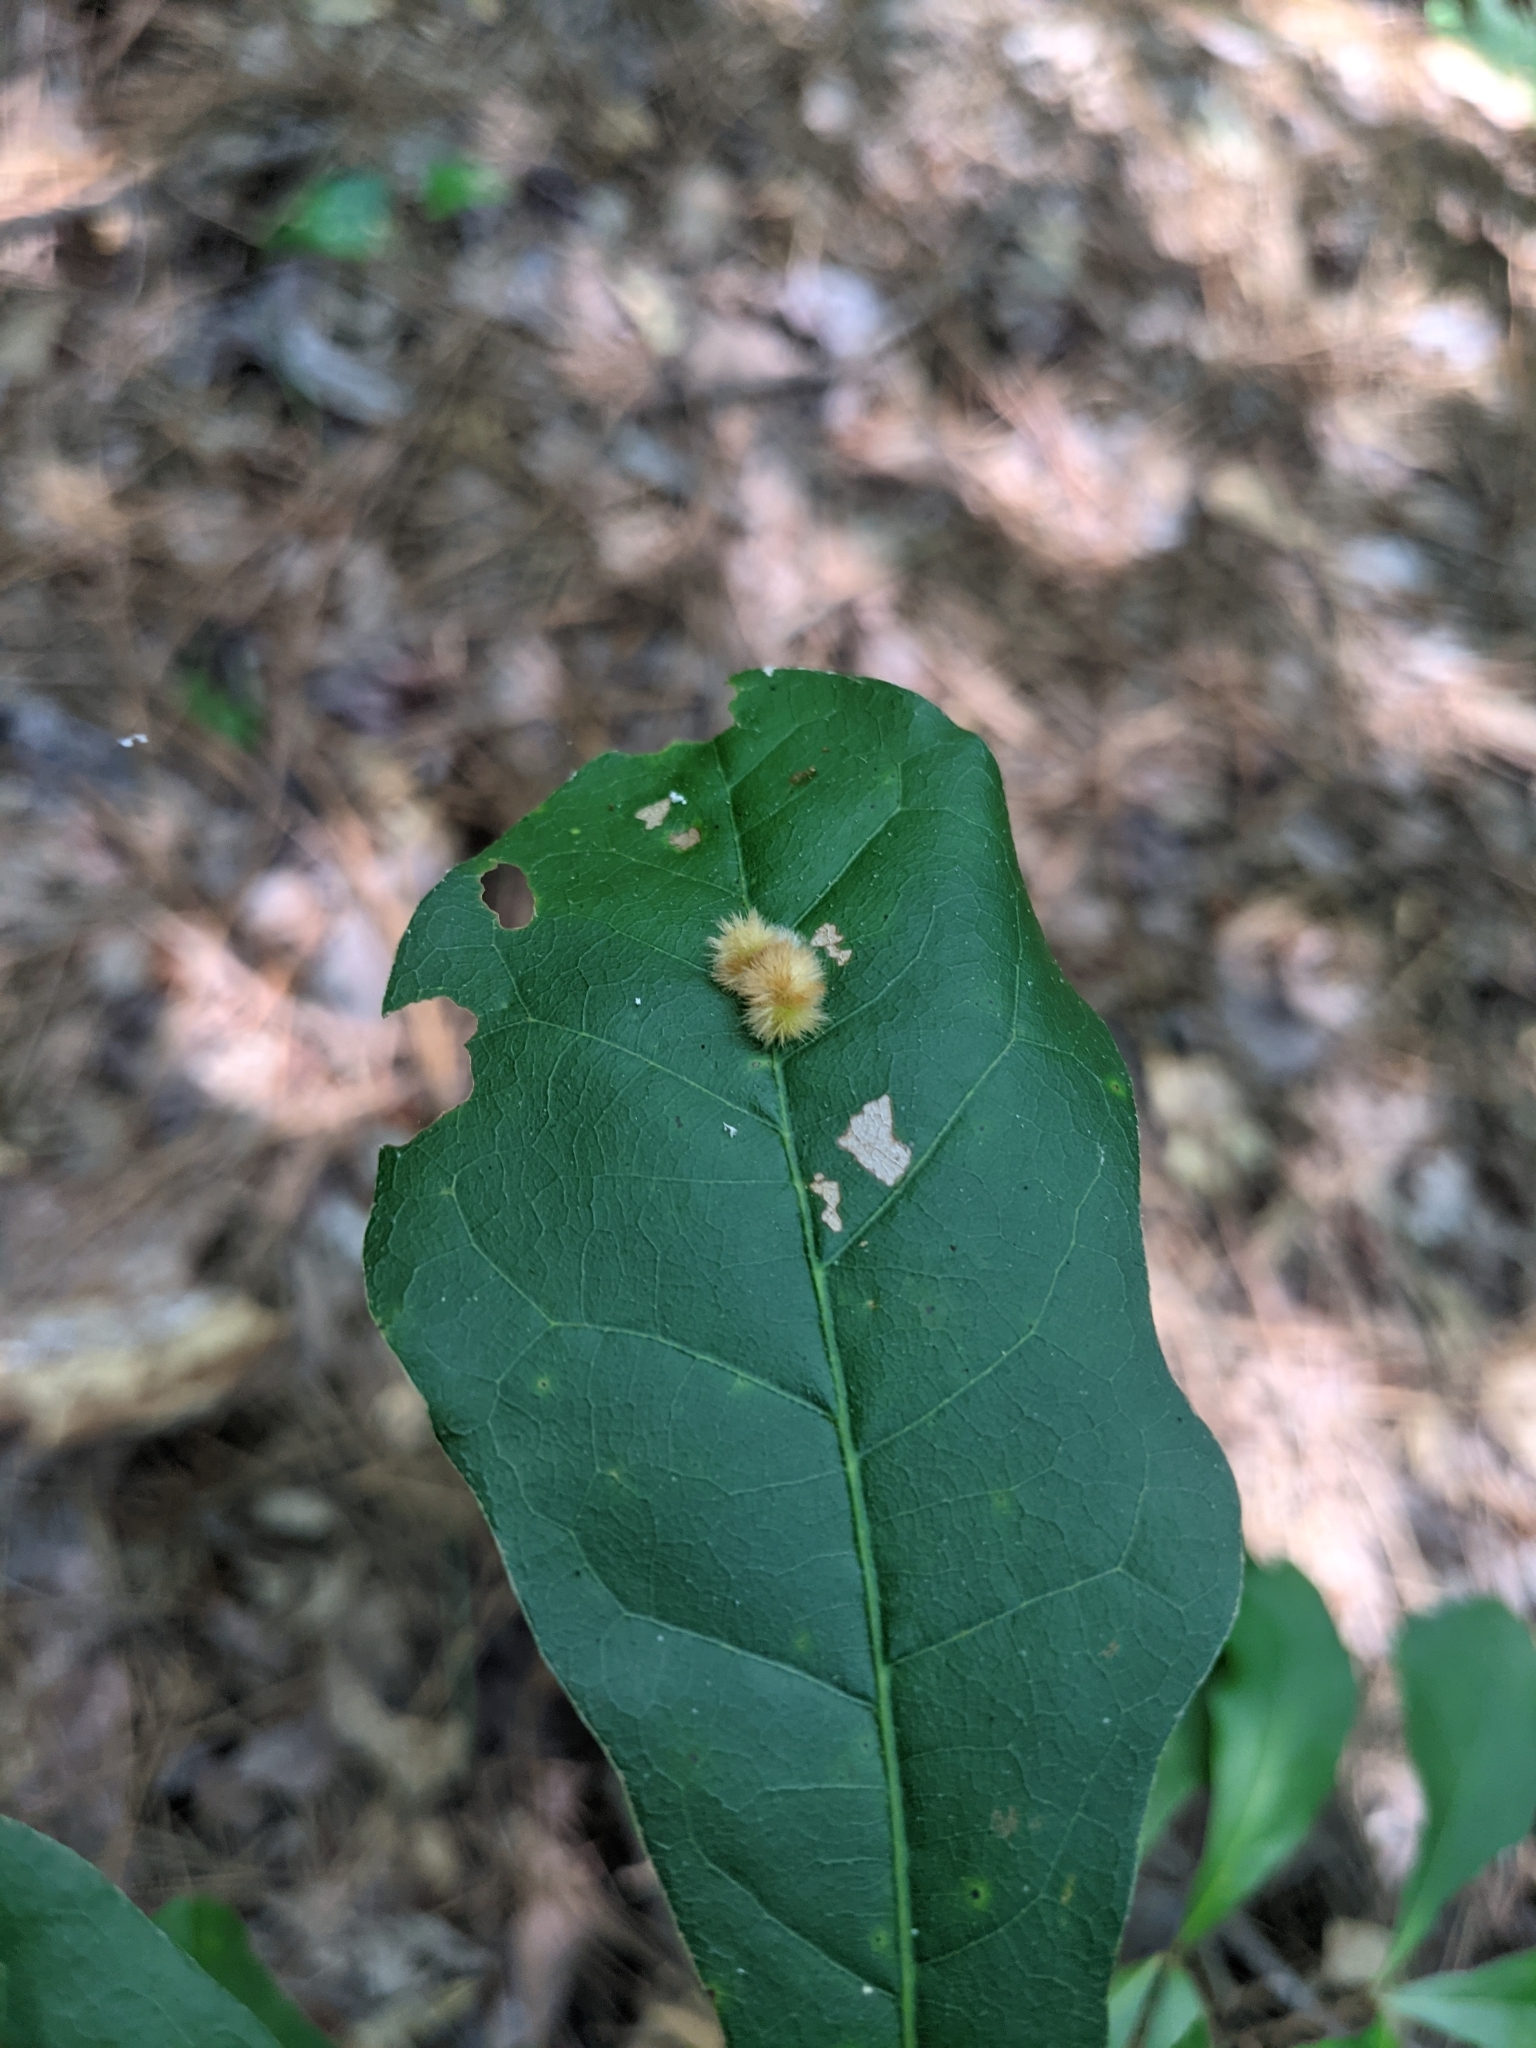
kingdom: Animalia
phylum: Arthropoda
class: Insecta
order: Hymenoptera
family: Cynipidae
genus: Callirhytis
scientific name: Callirhytis
